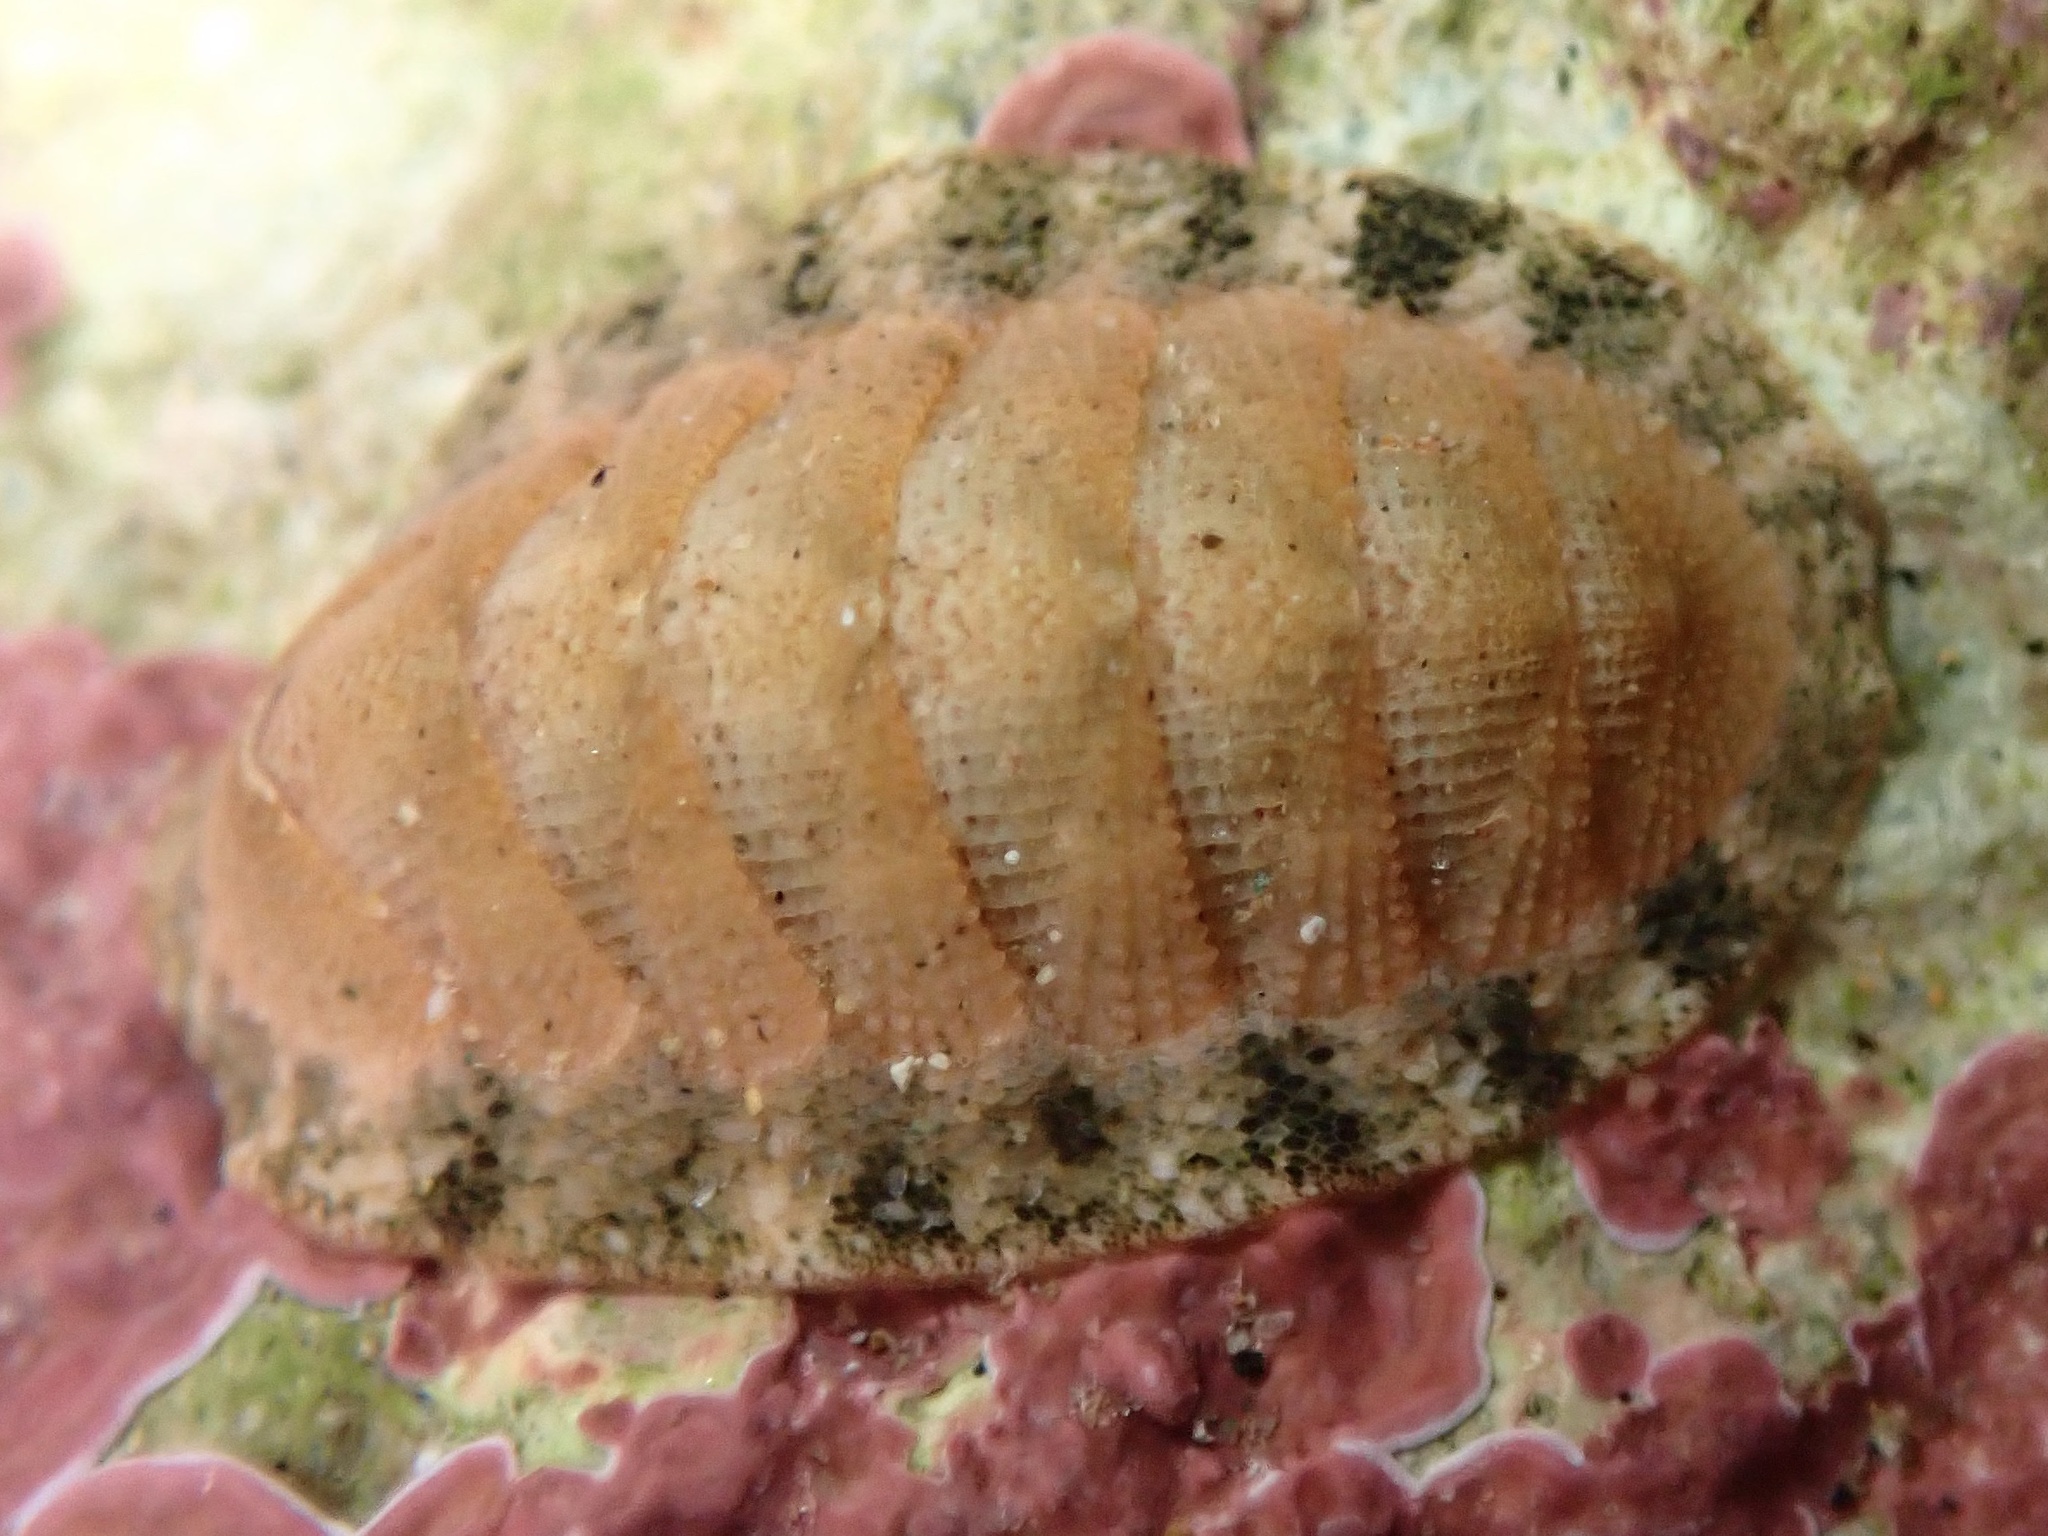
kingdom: Animalia
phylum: Mollusca
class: Polyplacophora
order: Chitonida
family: Ischnochitonidae
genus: Lepidozona
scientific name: Lepidozona pectinulata
